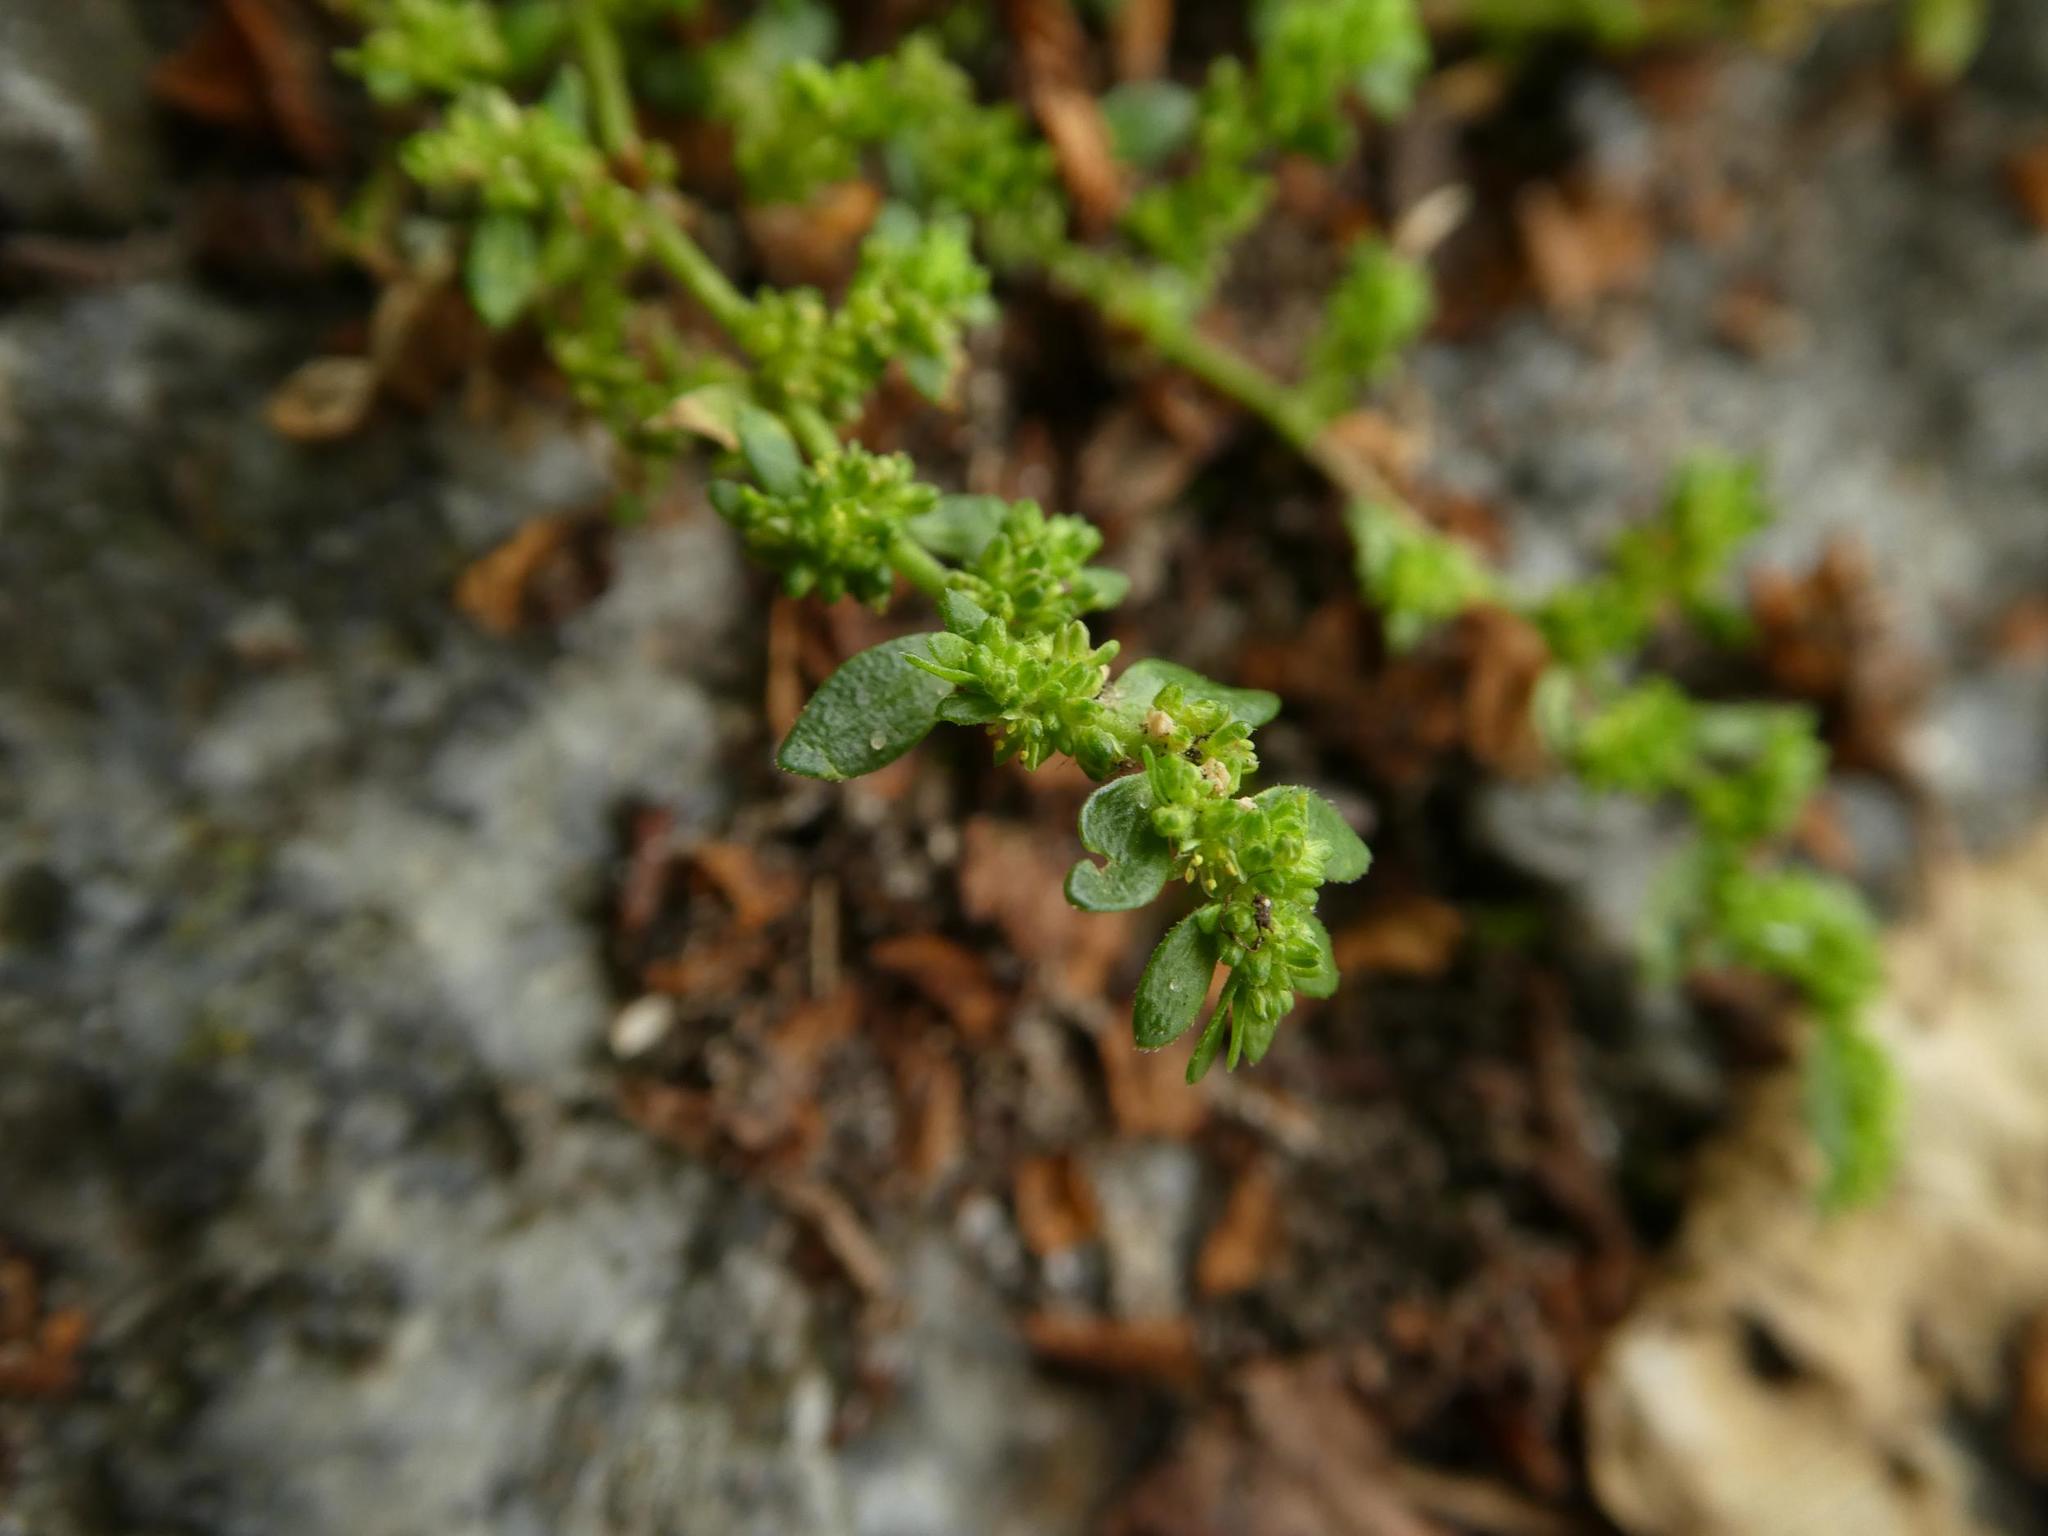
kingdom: Plantae
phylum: Tracheophyta
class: Magnoliopsida
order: Caryophyllales
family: Caryophyllaceae
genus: Herniaria
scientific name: Herniaria glabra
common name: Smooth rupturewort
